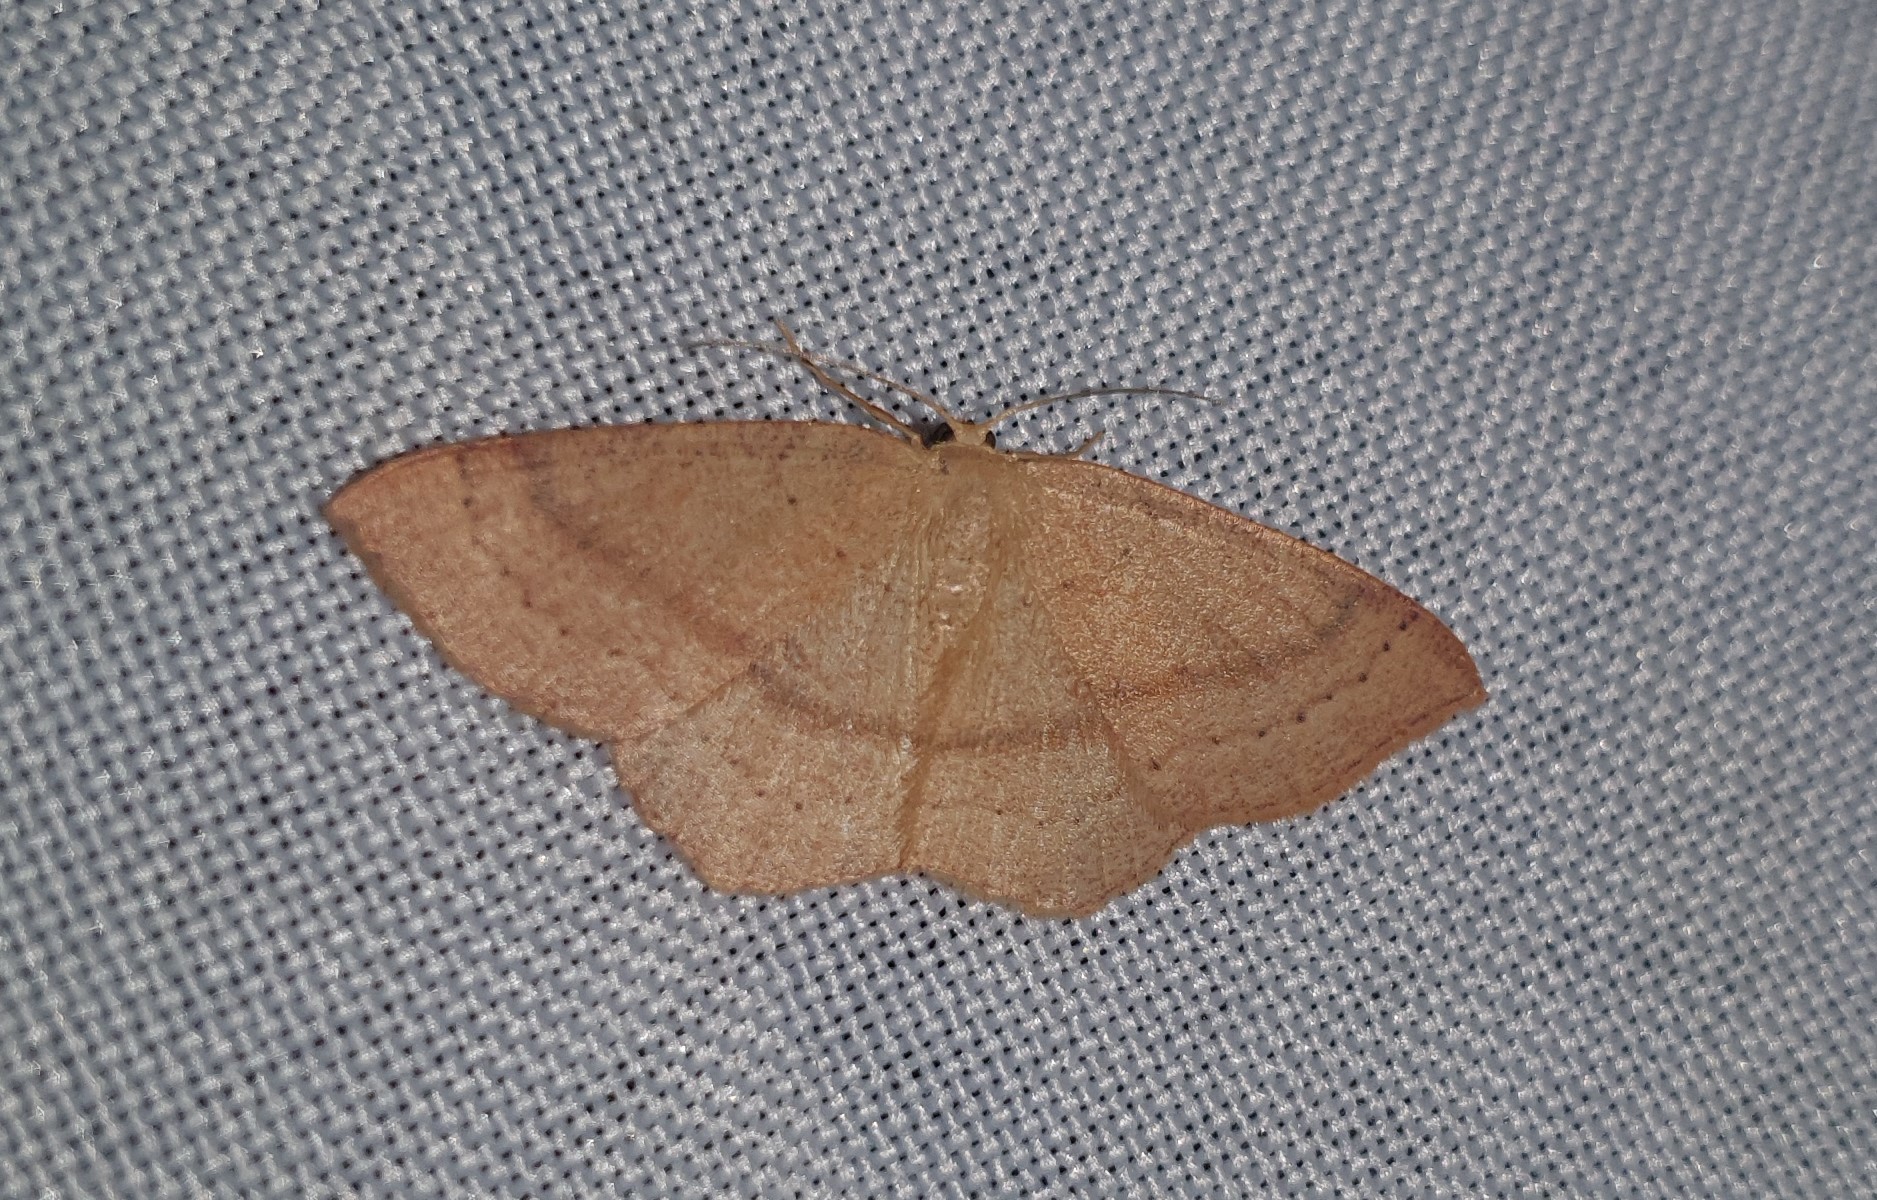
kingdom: Animalia
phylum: Arthropoda
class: Insecta
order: Lepidoptera
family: Geometridae
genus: Cyclophora
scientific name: Cyclophora linearia
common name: Clay triple-lines
